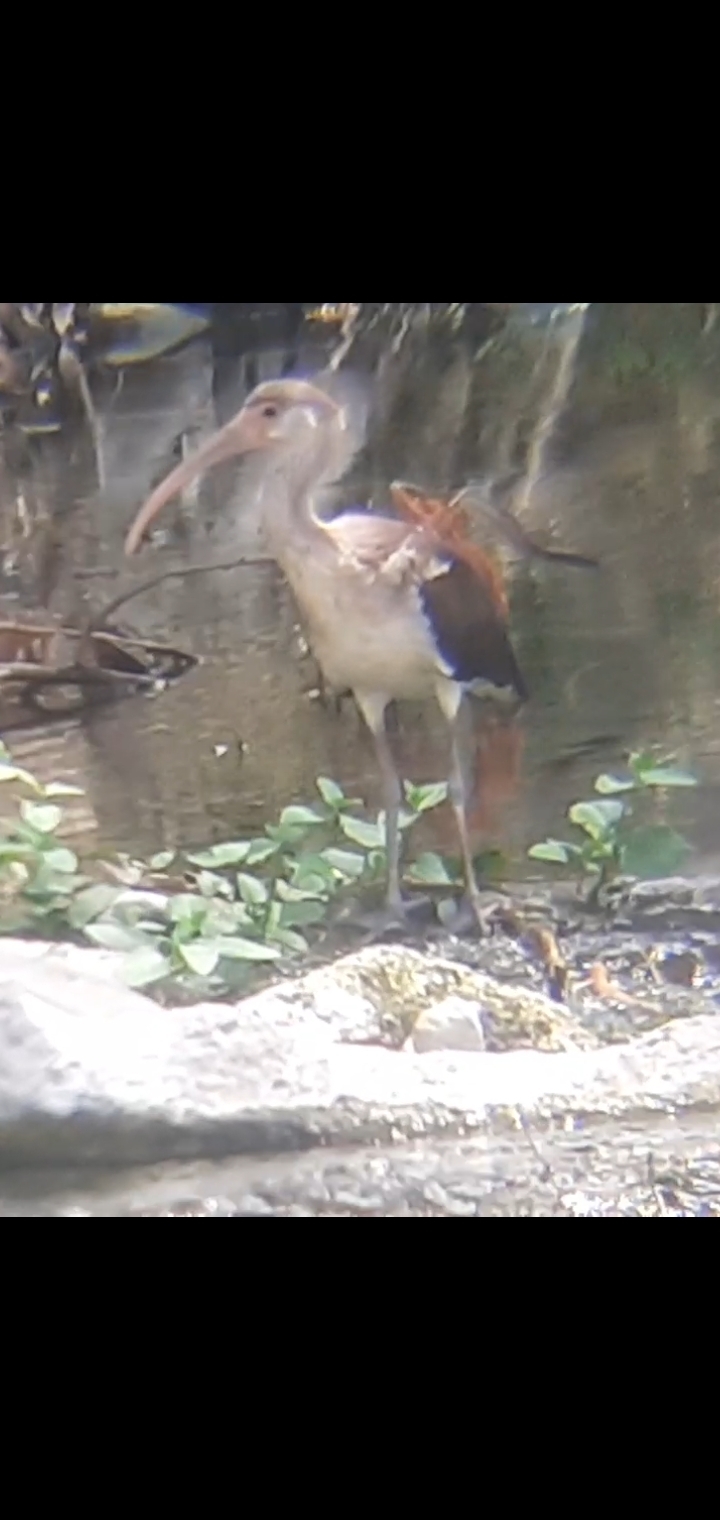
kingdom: Animalia
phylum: Chordata
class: Aves
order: Pelecaniformes
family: Threskiornithidae
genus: Eudocimus
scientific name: Eudocimus albus
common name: White ibis
